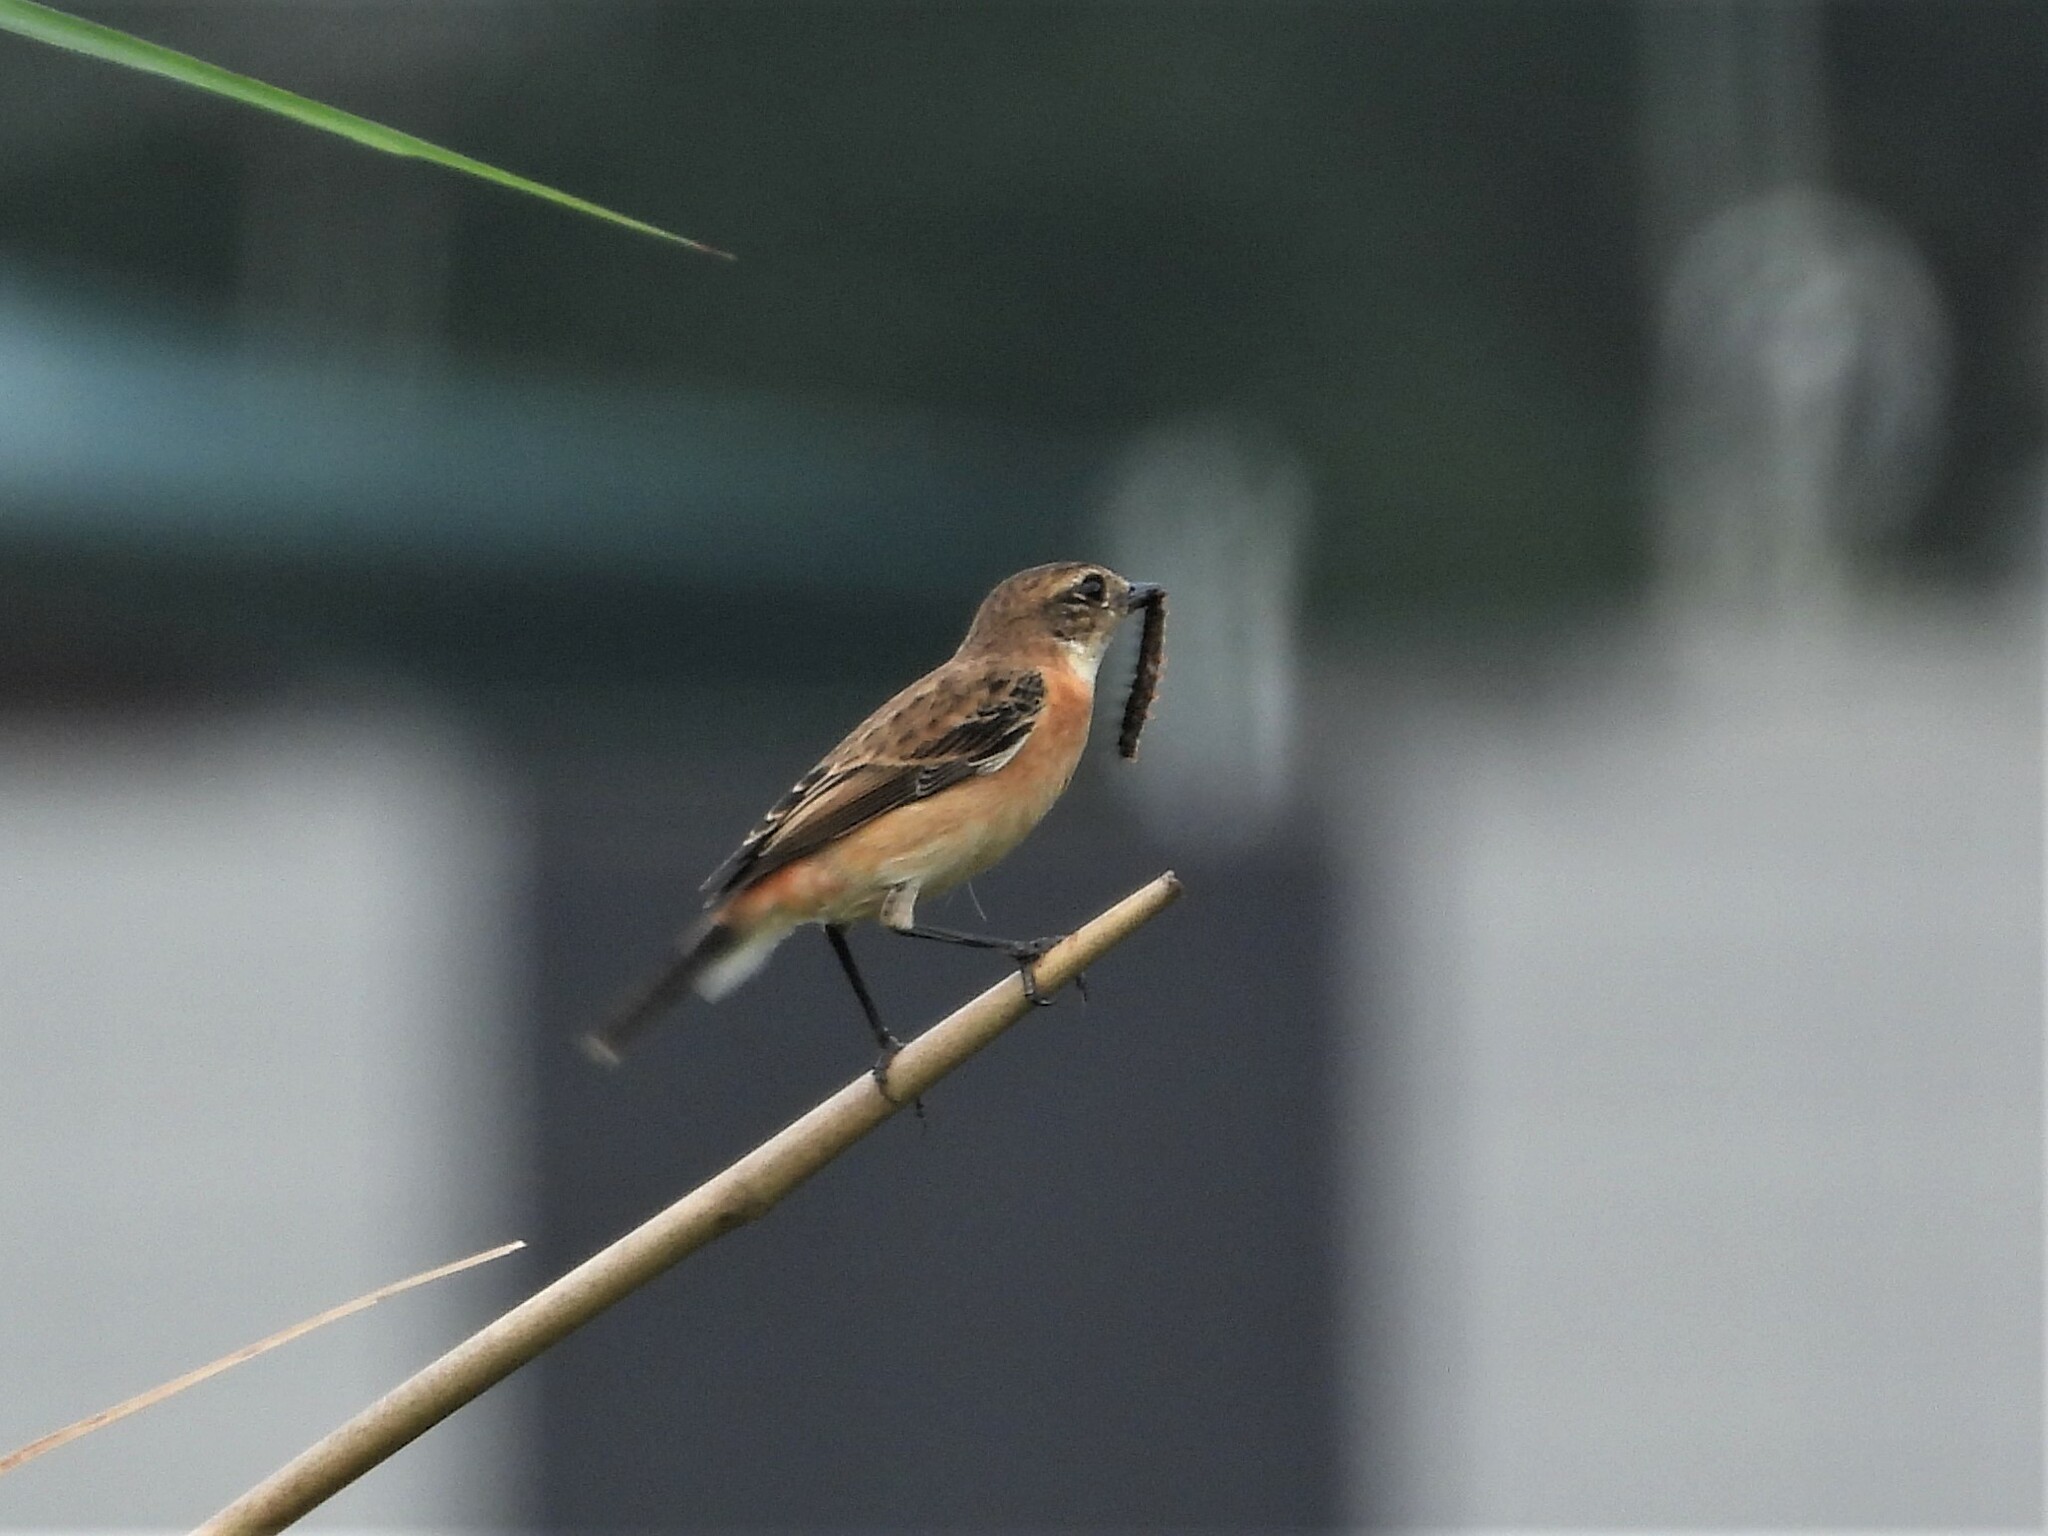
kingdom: Animalia
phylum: Chordata
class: Aves
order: Passeriformes
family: Muscicapidae
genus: Saxicola
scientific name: Saxicola stejnegeri
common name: Stejneger's stonechat
